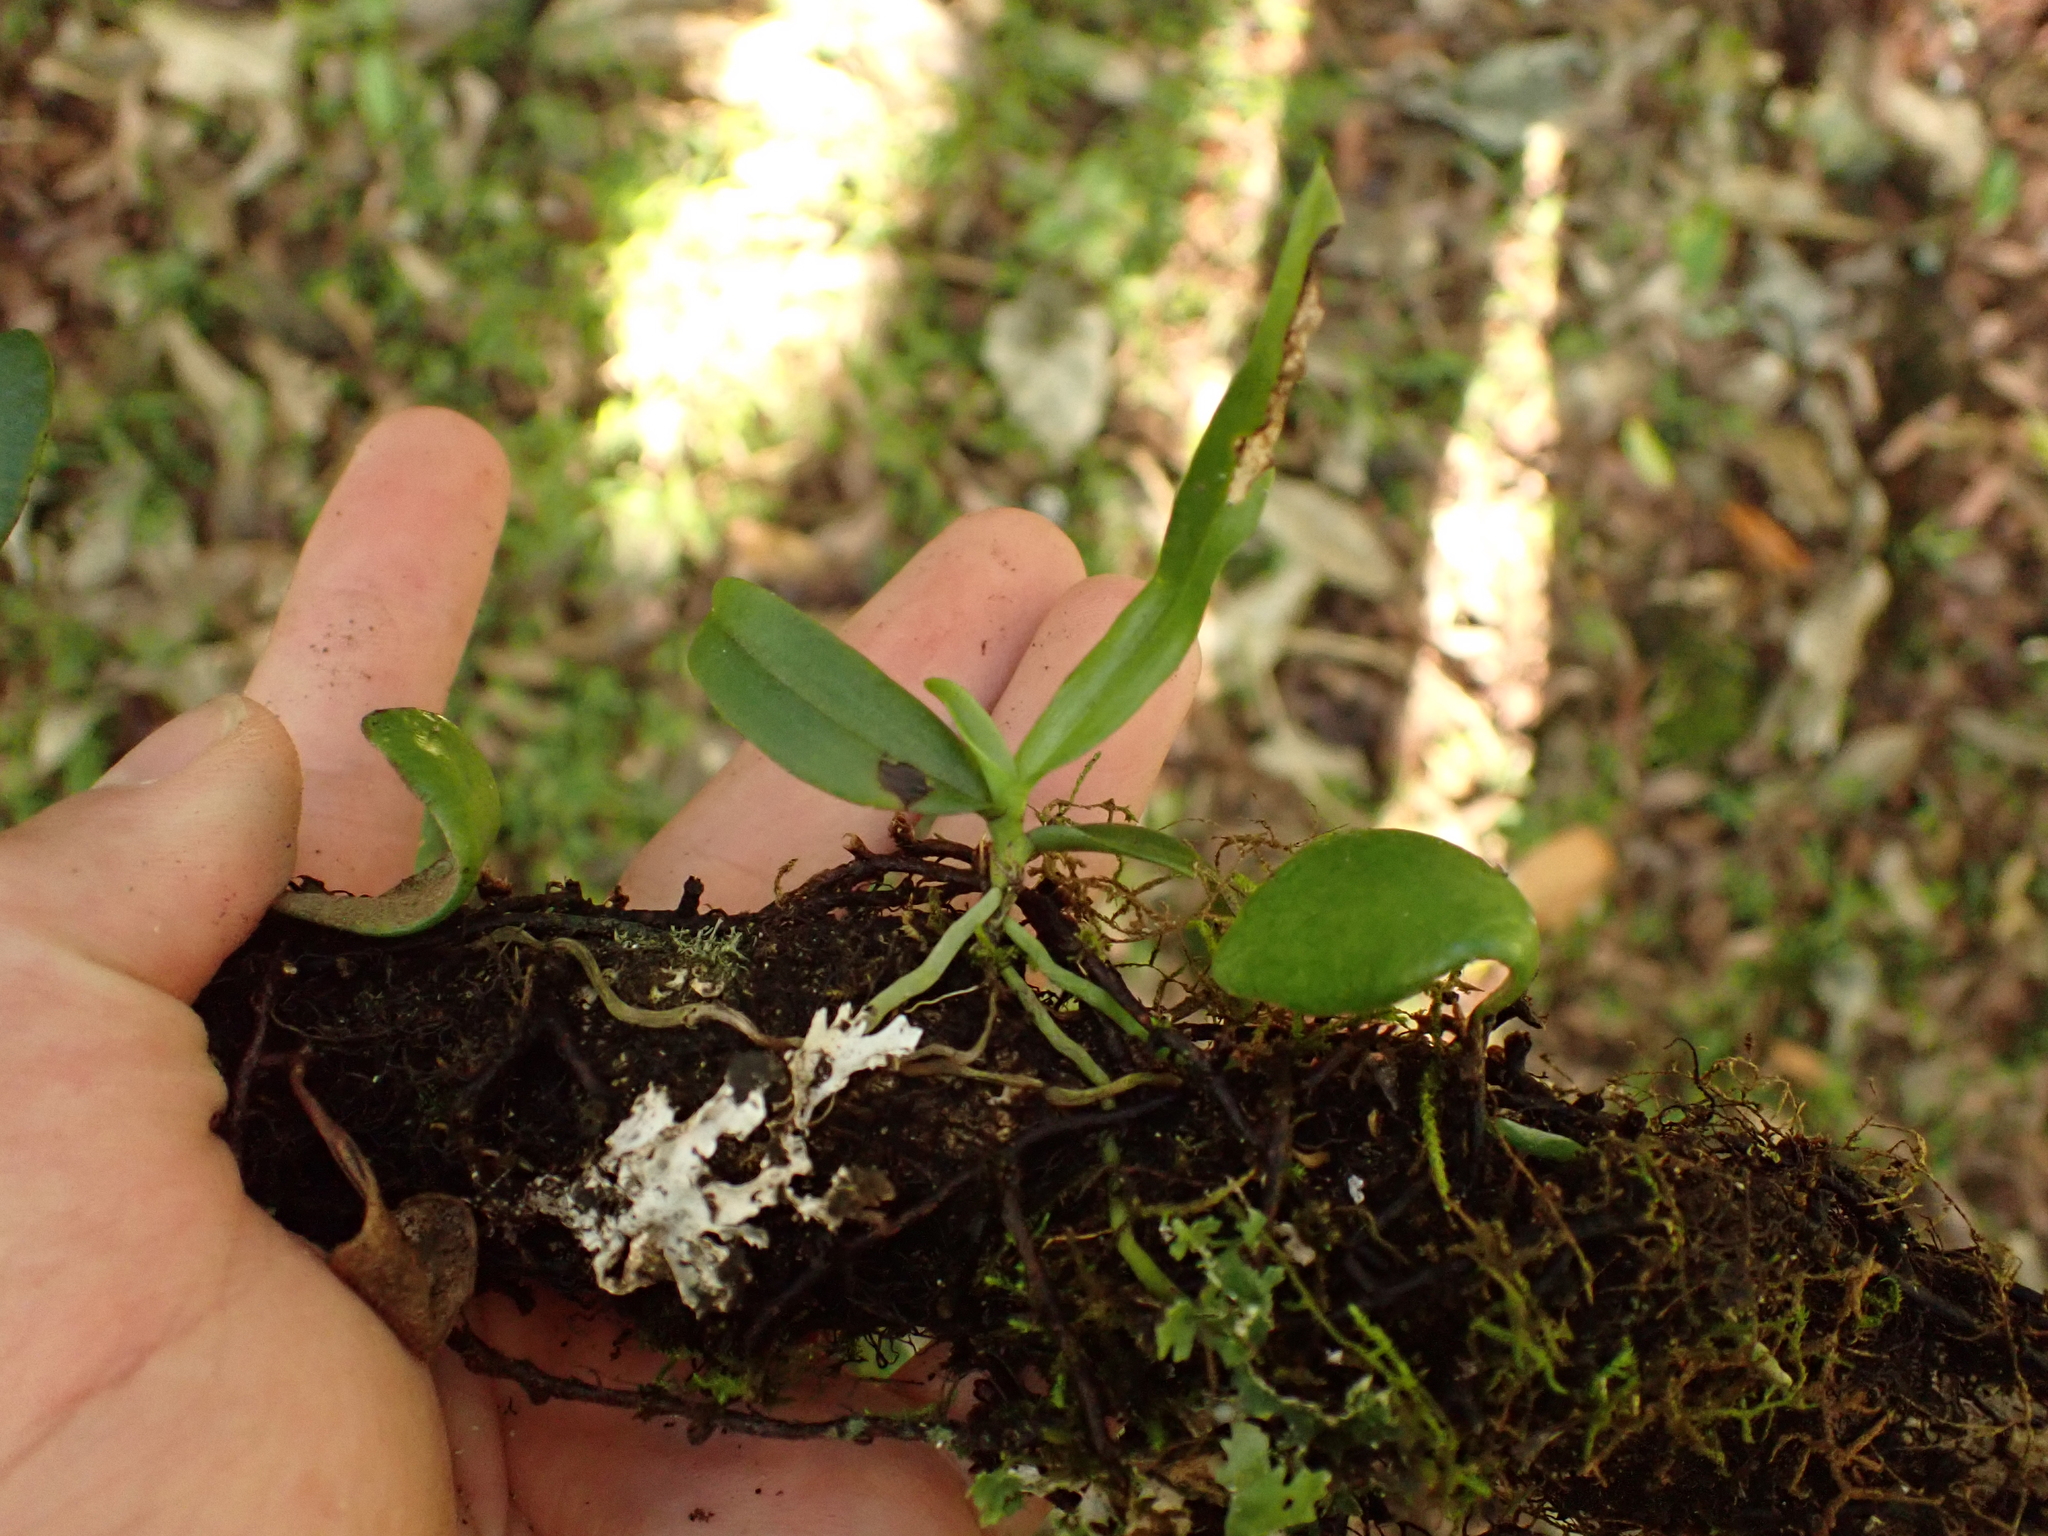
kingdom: Plantae
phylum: Tracheophyta
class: Liliopsida
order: Asparagales
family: Orchidaceae
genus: Drymoanthus
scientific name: Drymoanthus adversus
